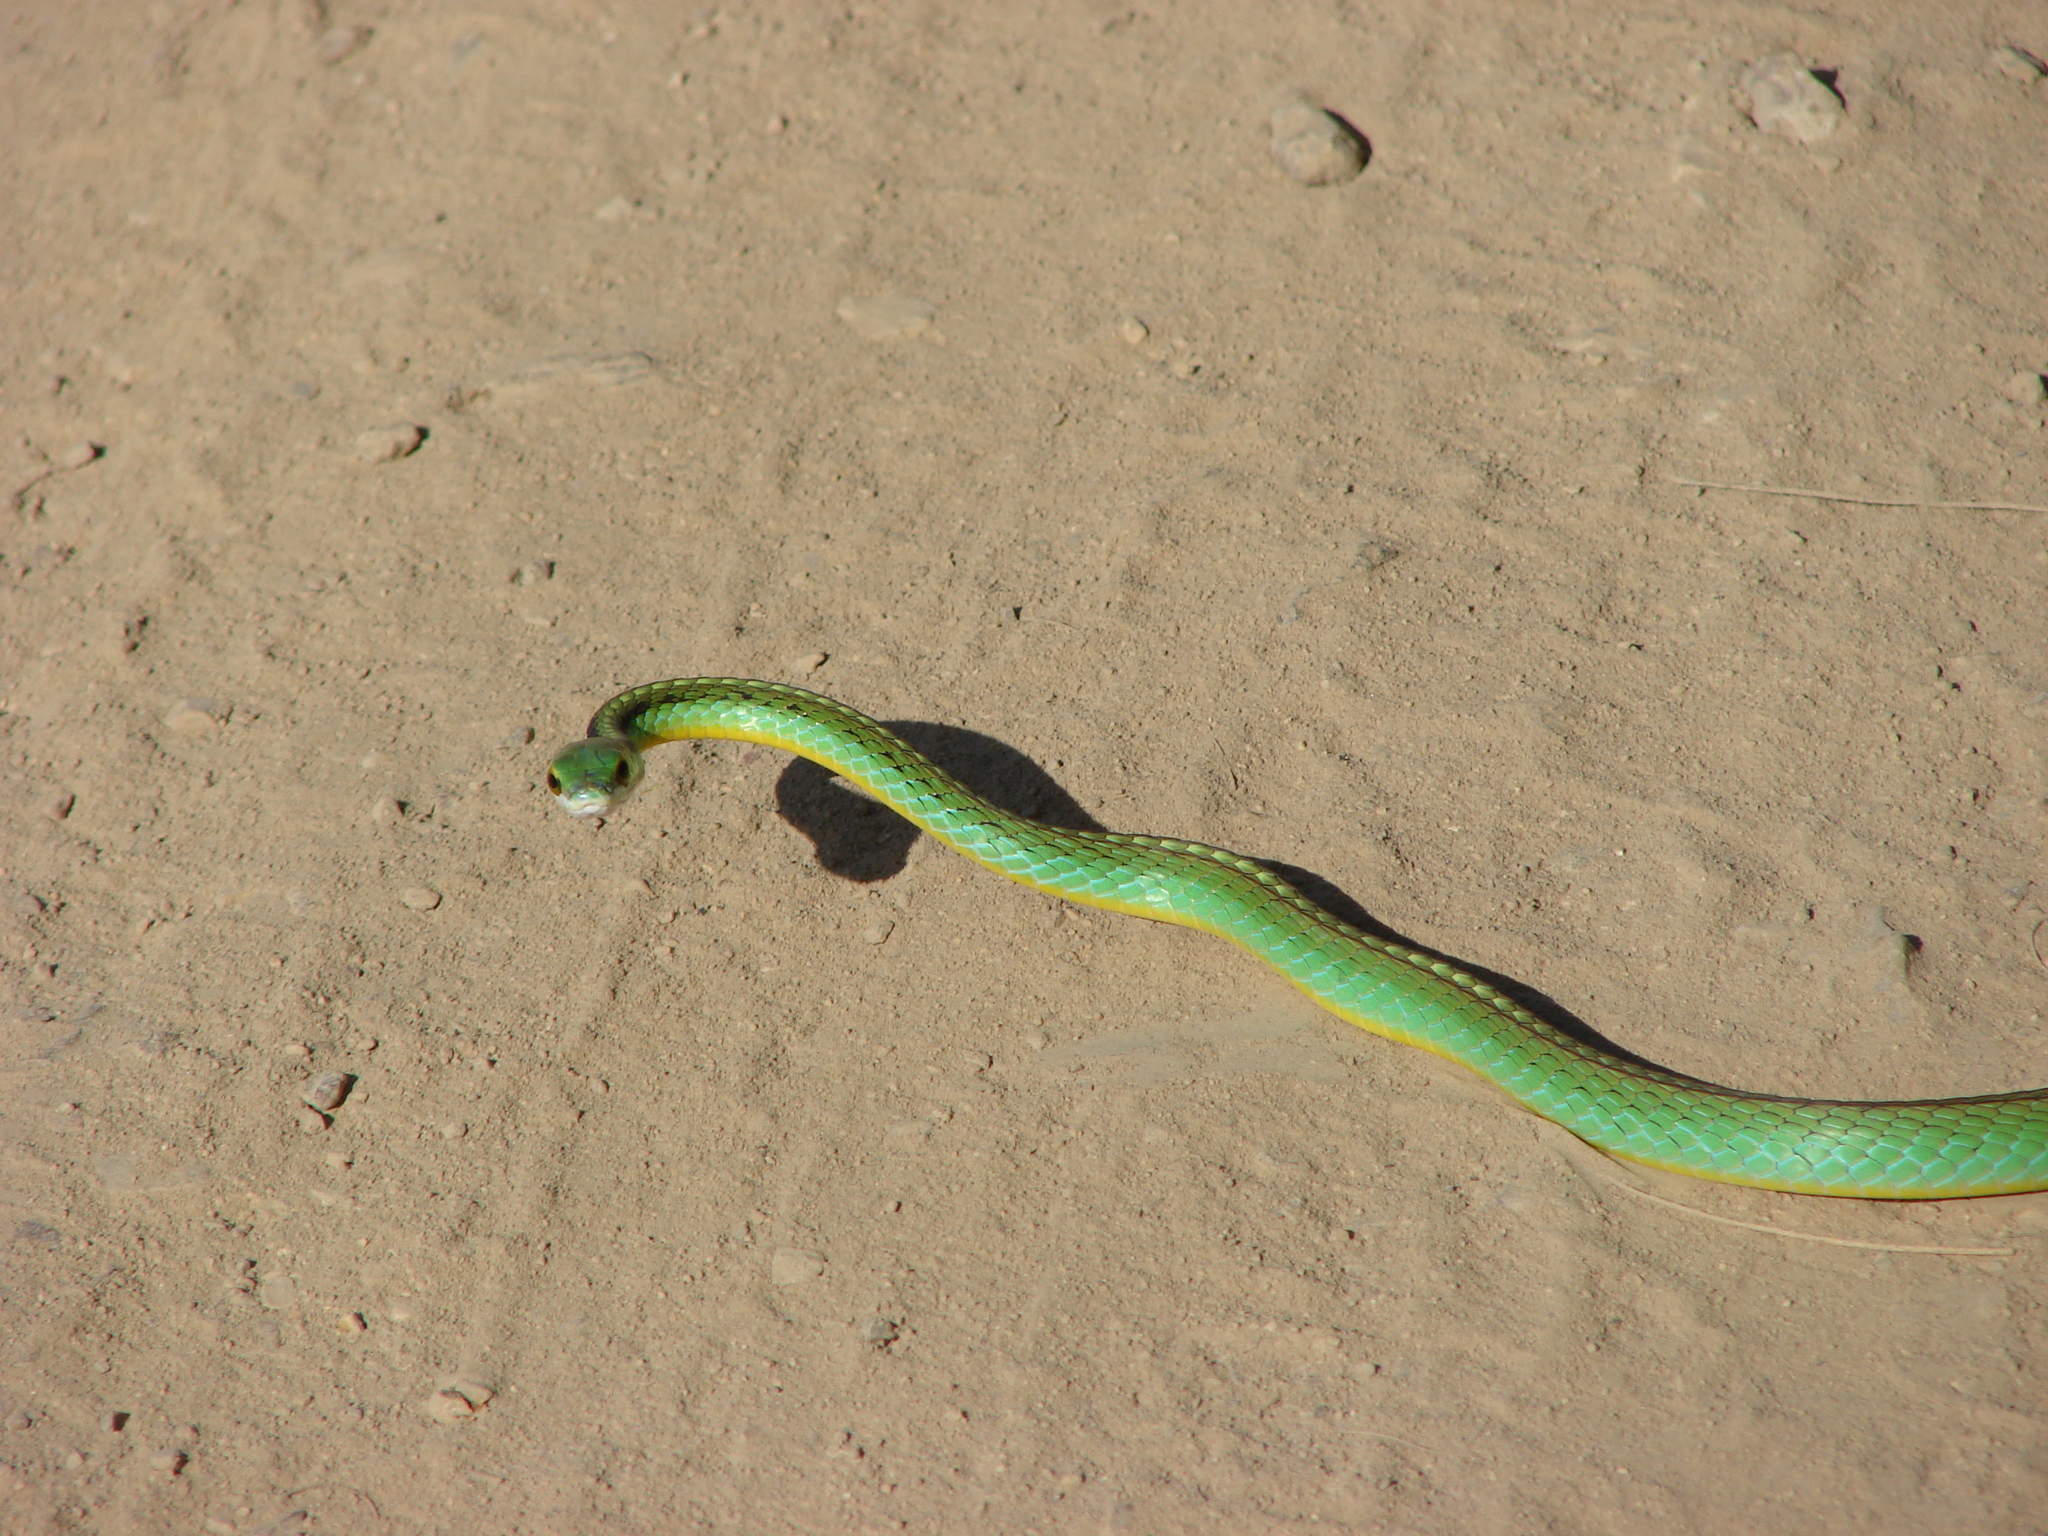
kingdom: Animalia
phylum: Chordata
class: Squamata
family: Colubridae
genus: Leptophis
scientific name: Leptophis diplotropis
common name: Pacific coast parrot snake
